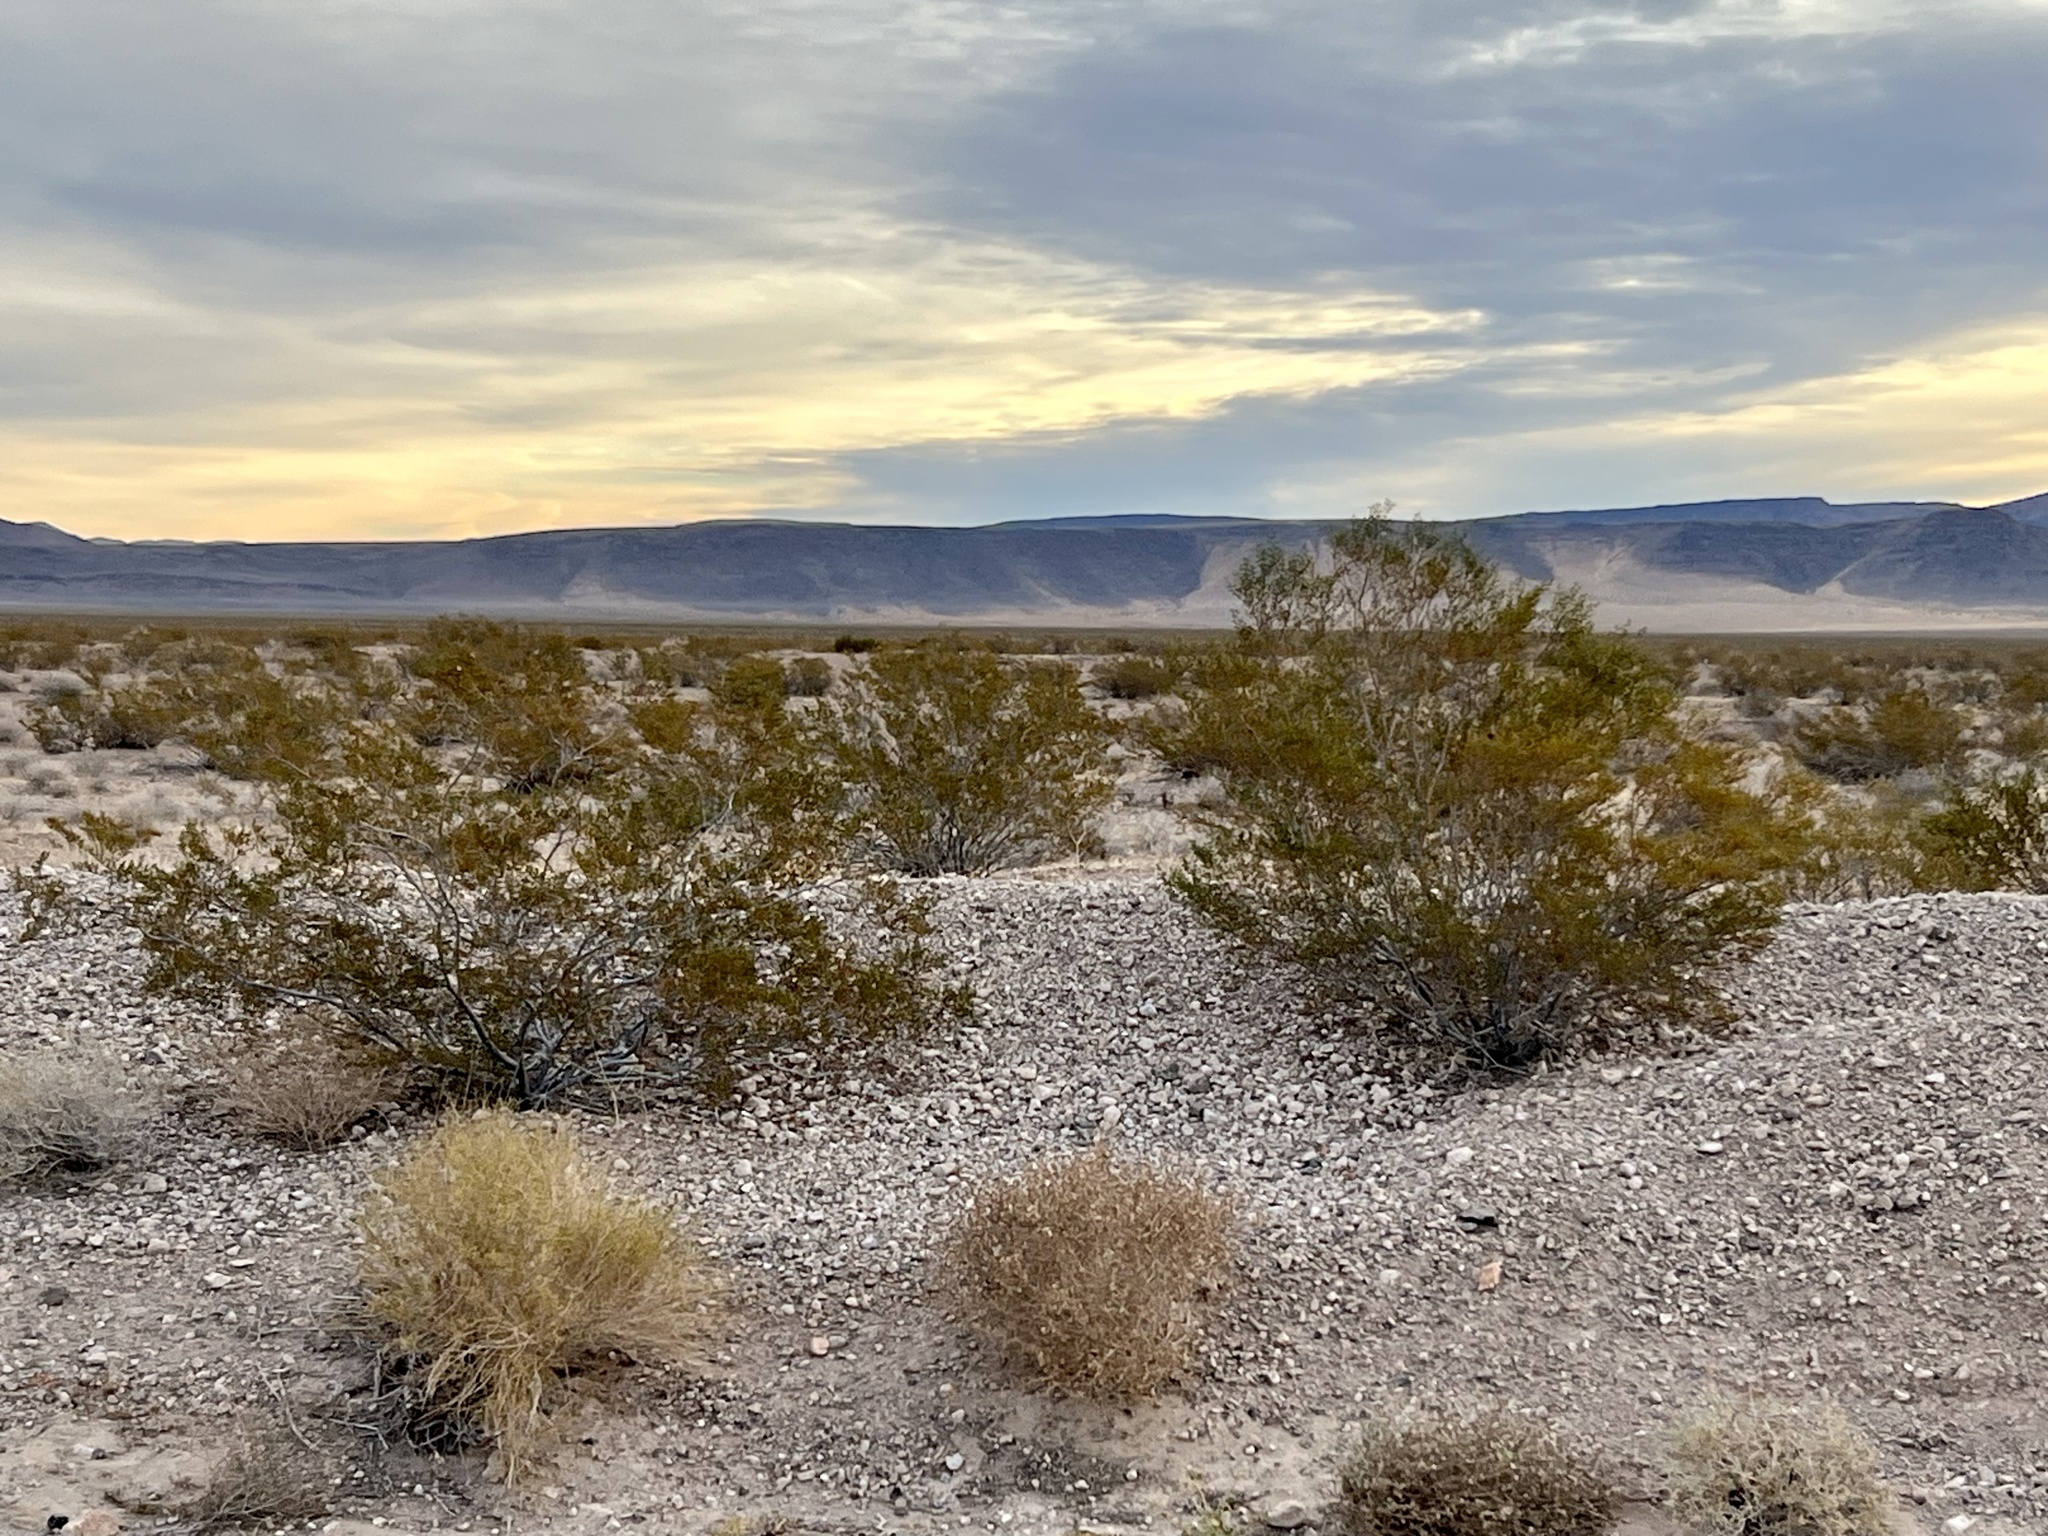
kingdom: Plantae
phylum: Tracheophyta
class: Magnoliopsida
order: Zygophyllales
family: Zygophyllaceae
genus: Larrea
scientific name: Larrea tridentata
